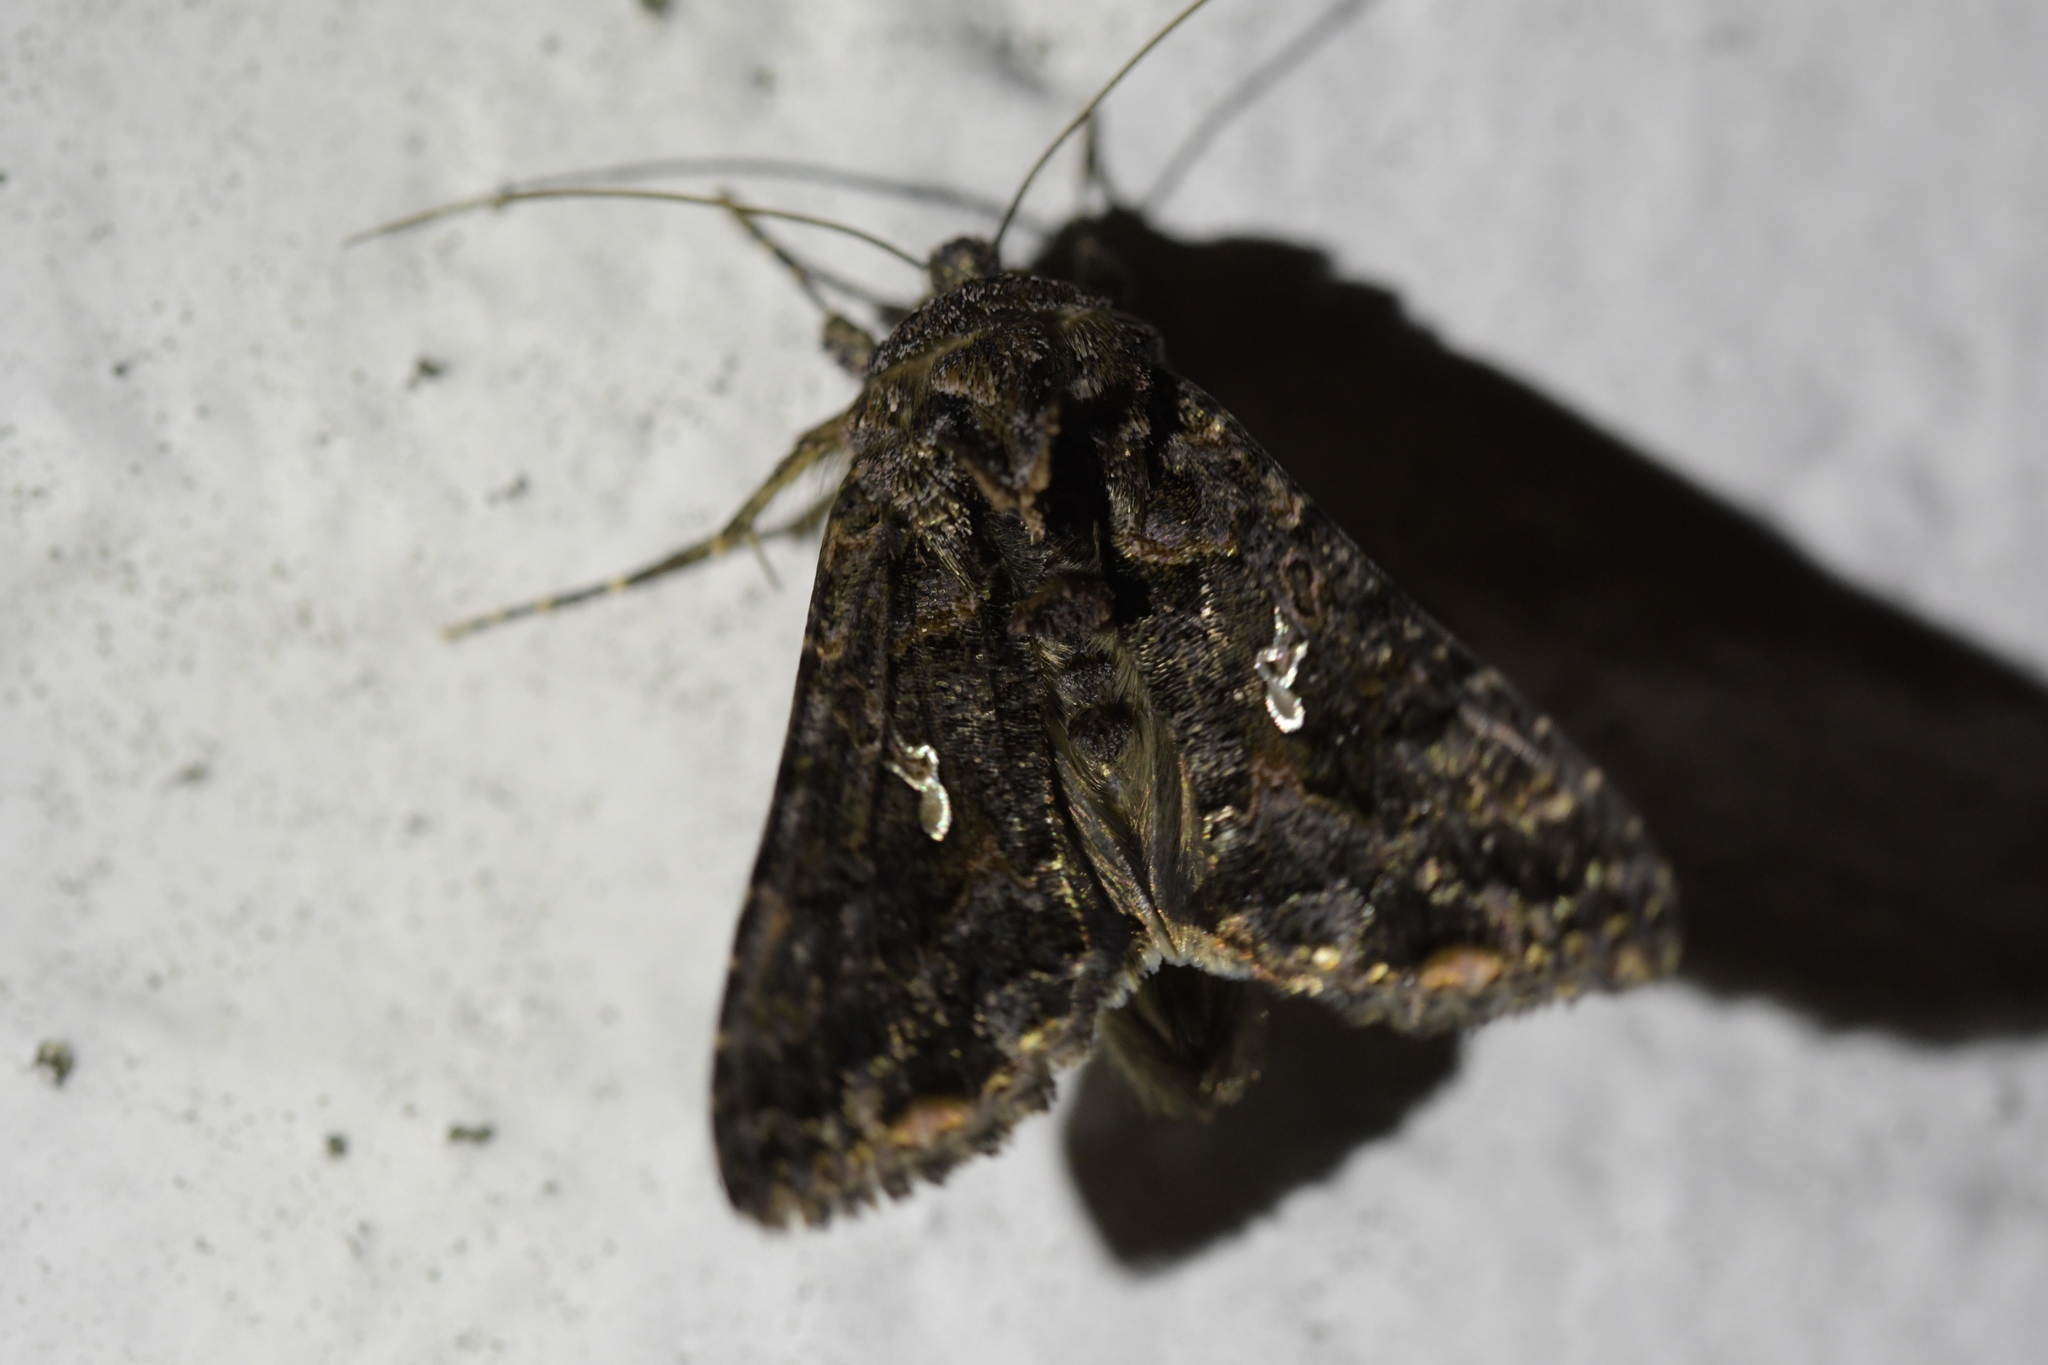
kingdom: Animalia
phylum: Arthropoda
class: Insecta
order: Lepidoptera
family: Noctuidae
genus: Ctenoplusia
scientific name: Ctenoplusia limbirena
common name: Scar bank gem
